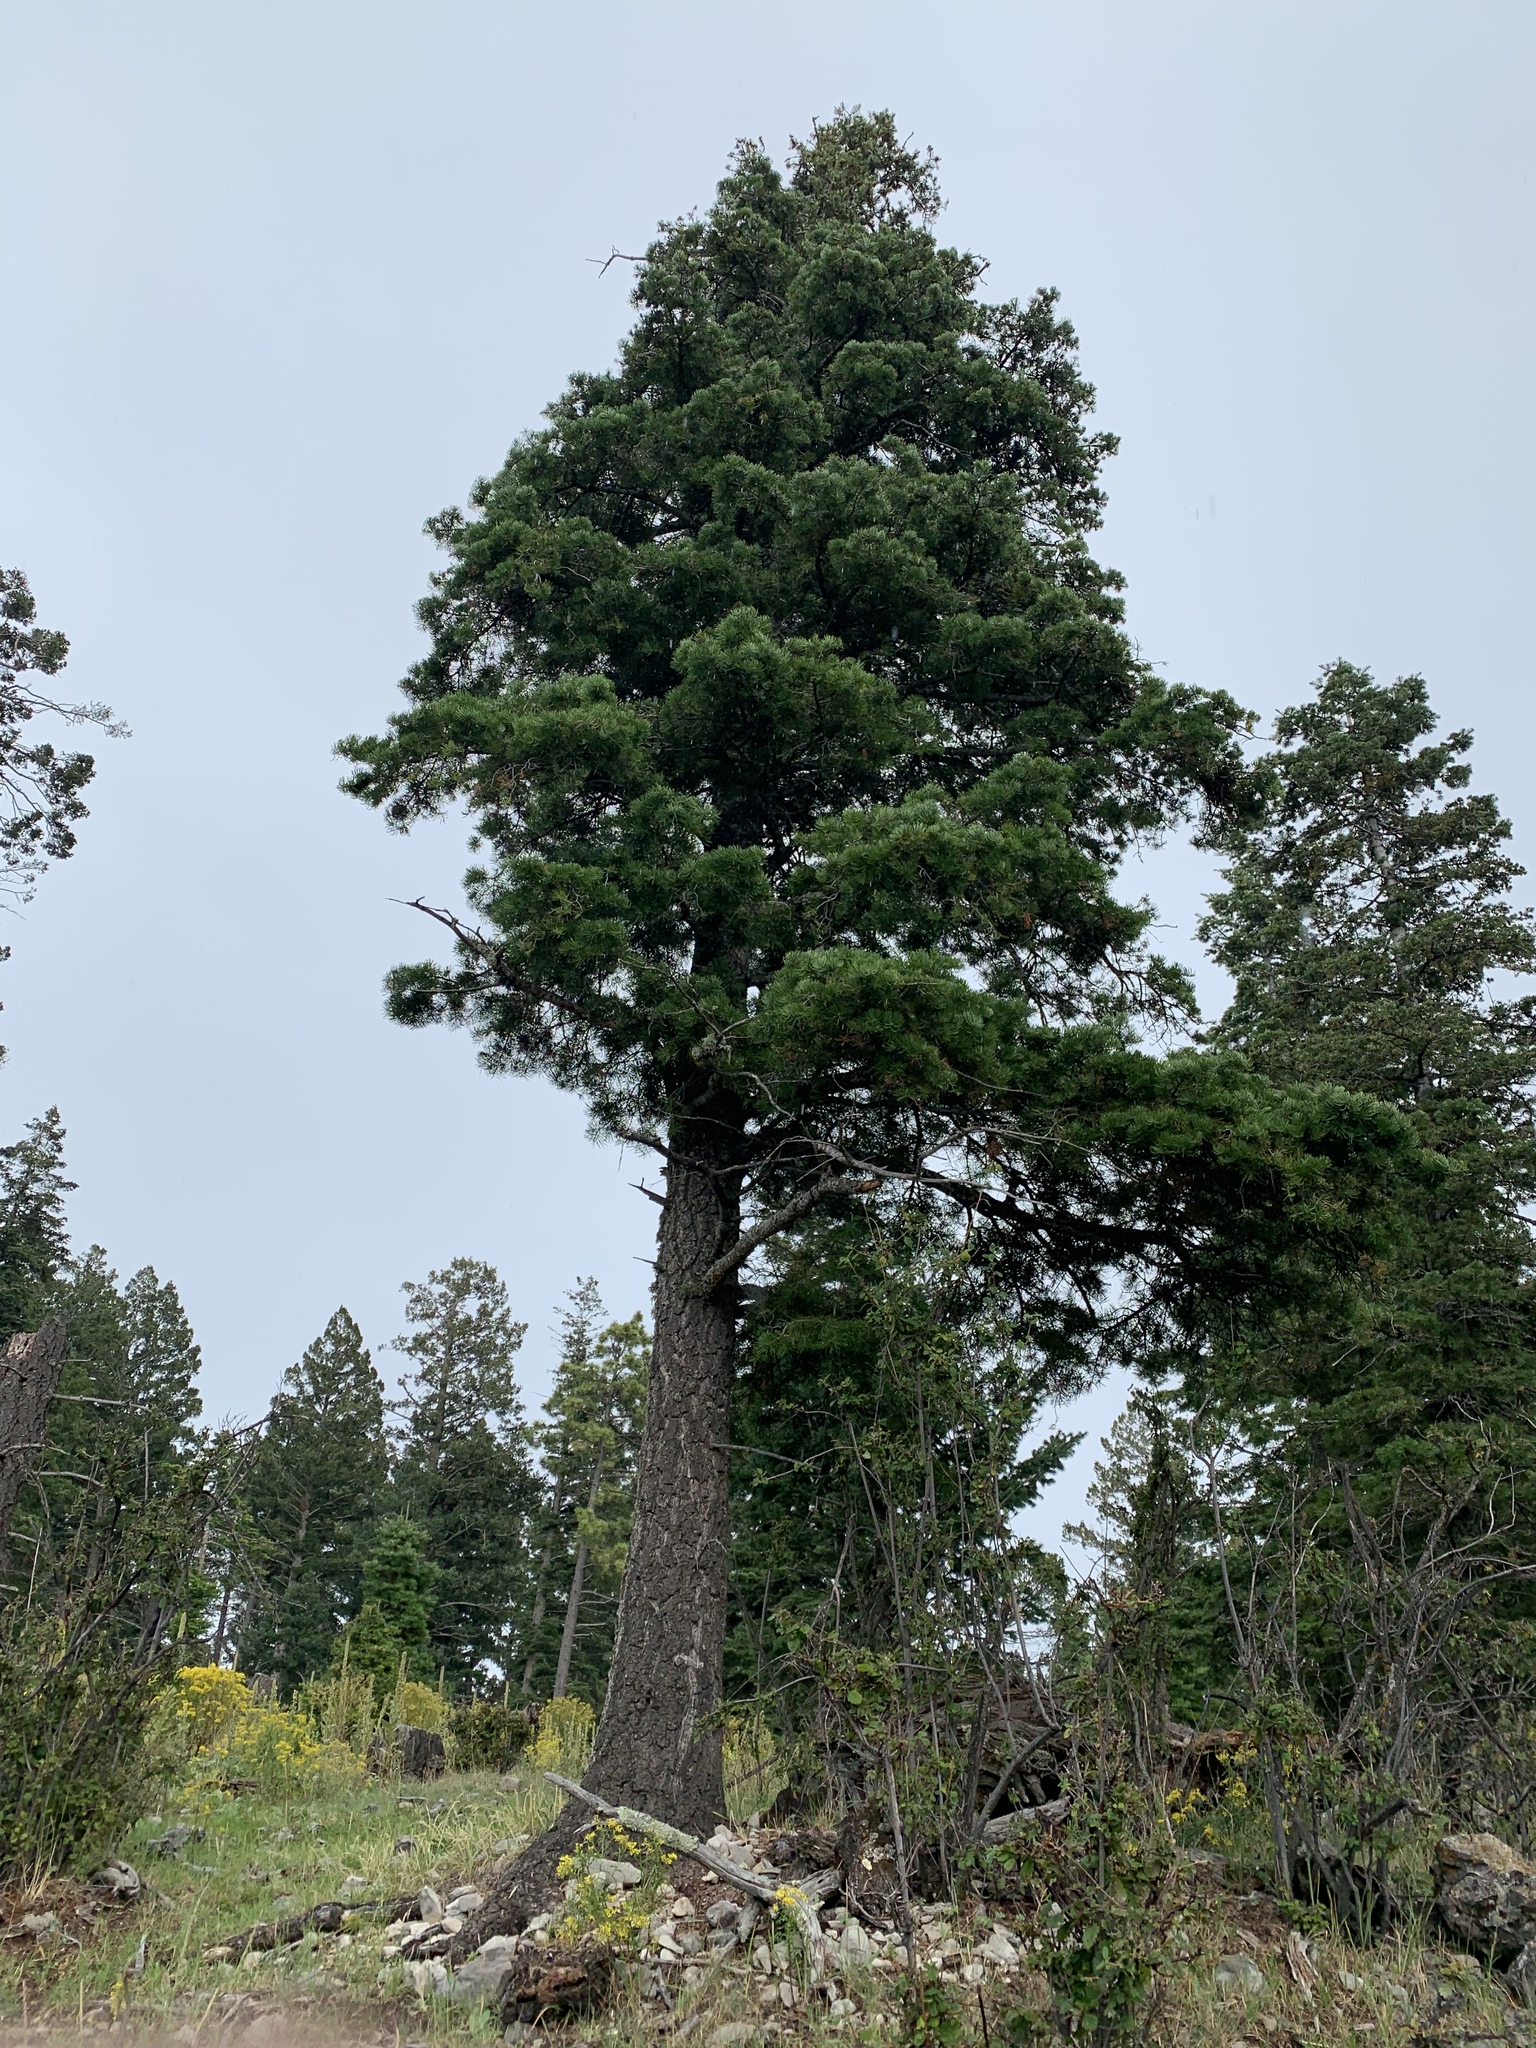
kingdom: Plantae
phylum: Tracheophyta
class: Pinopsida
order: Pinales
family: Pinaceae
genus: Abies
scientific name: Abies concolor
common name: Colorado fir
